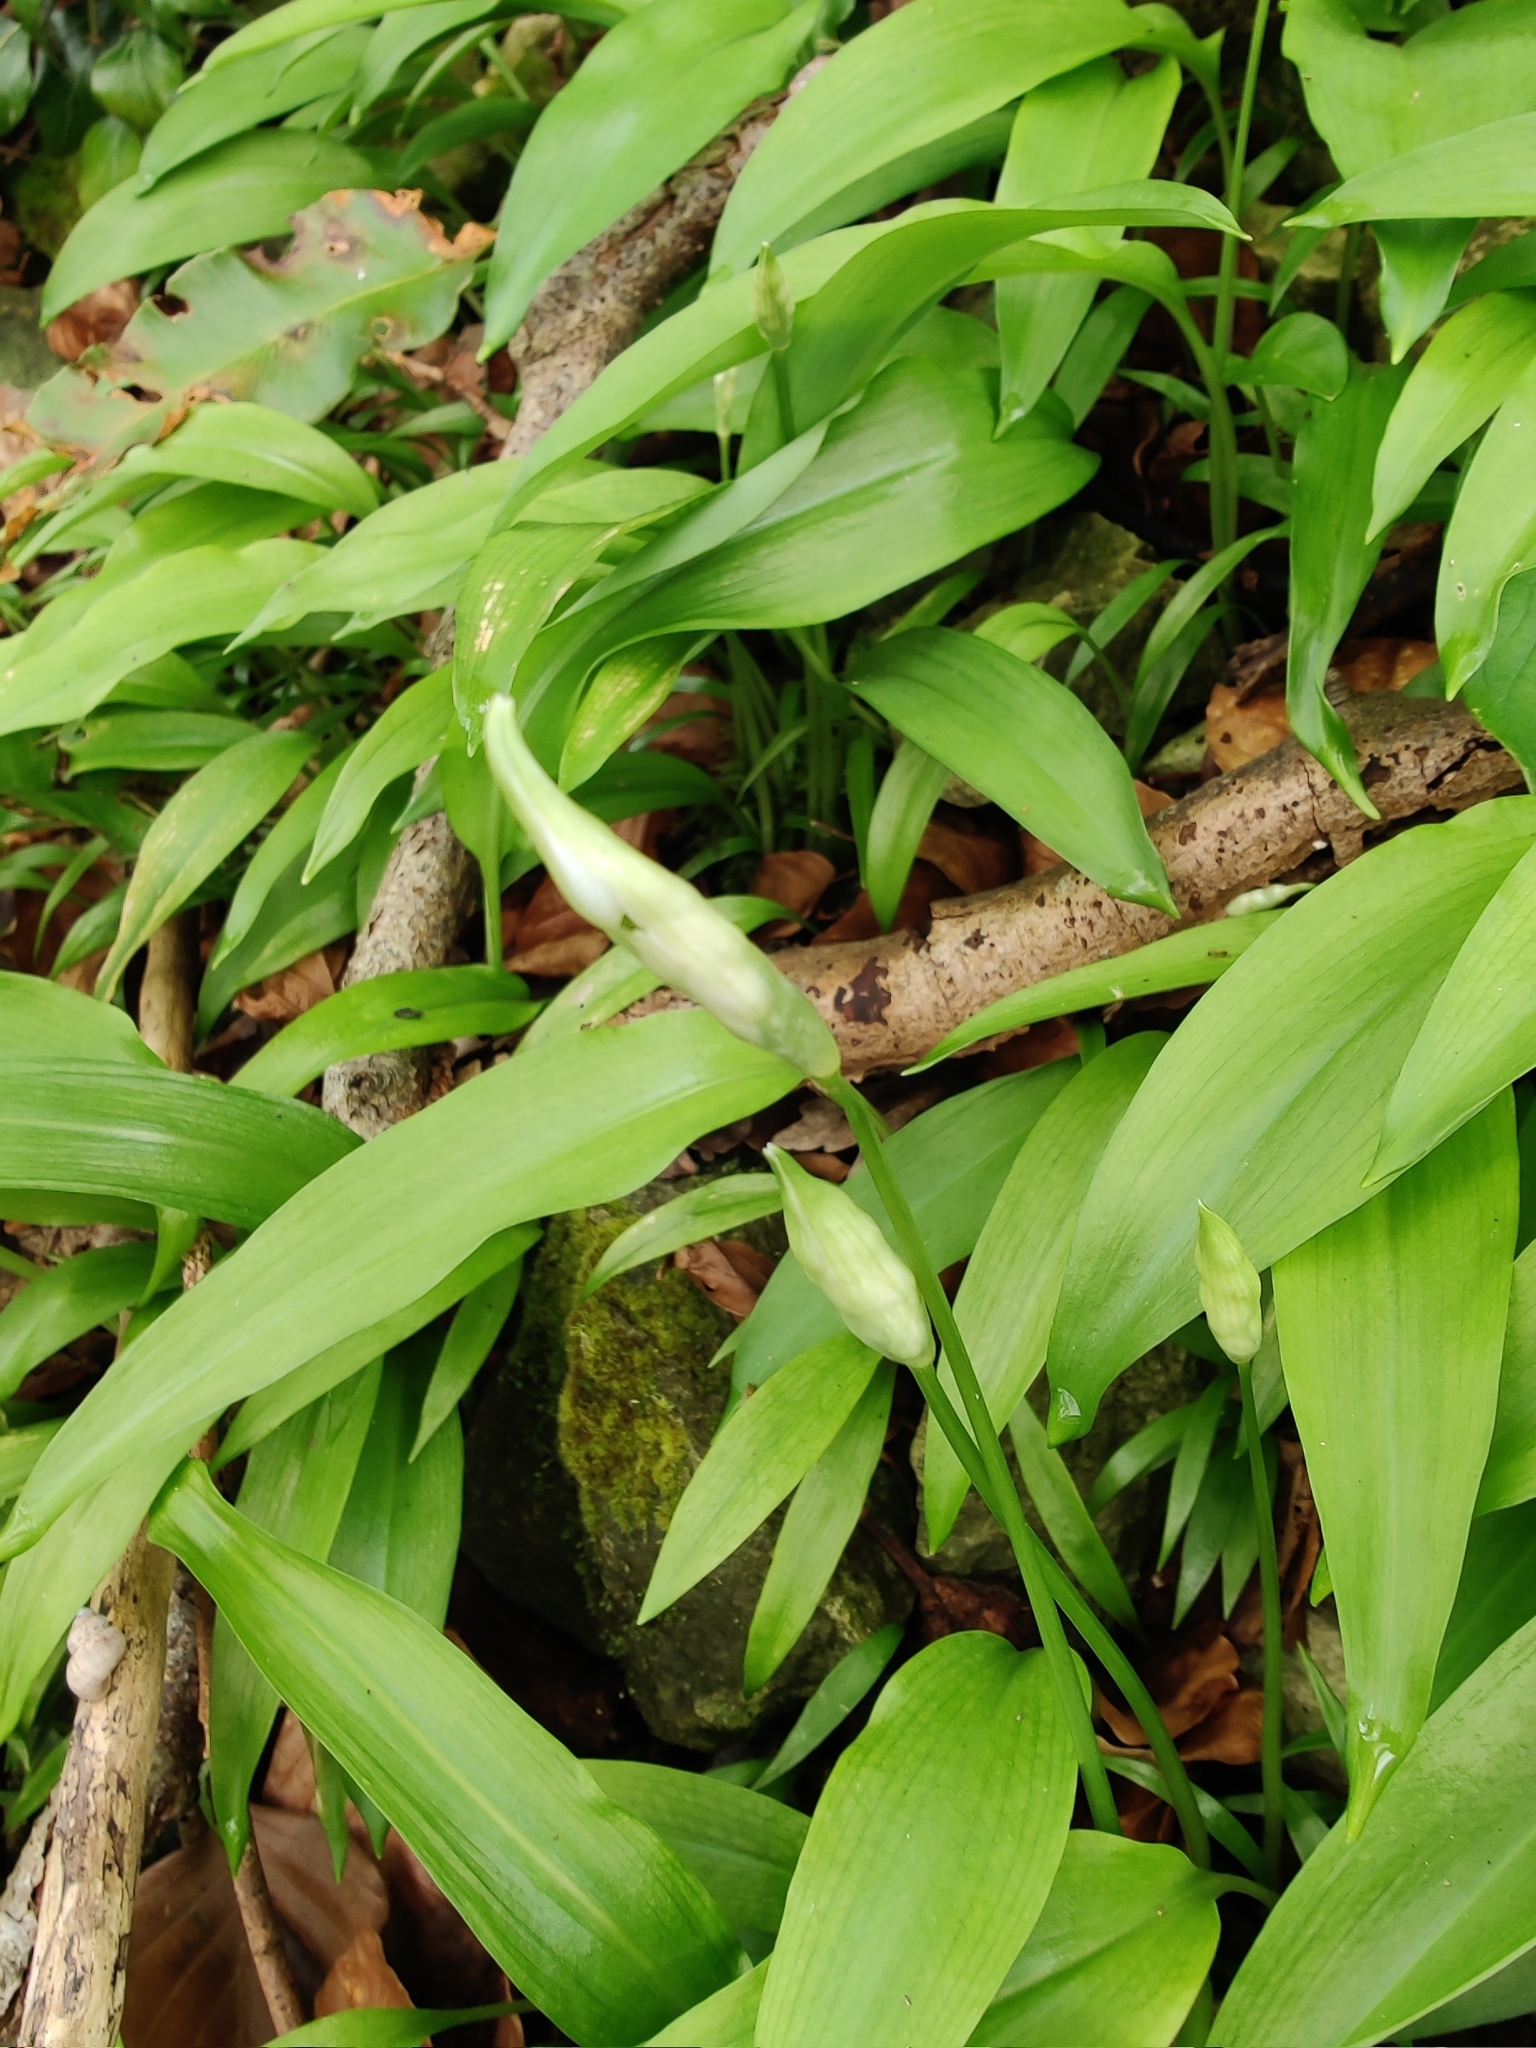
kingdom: Plantae
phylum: Tracheophyta
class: Liliopsida
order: Asparagales
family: Amaryllidaceae
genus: Allium
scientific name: Allium ursinum
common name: Ramsons
